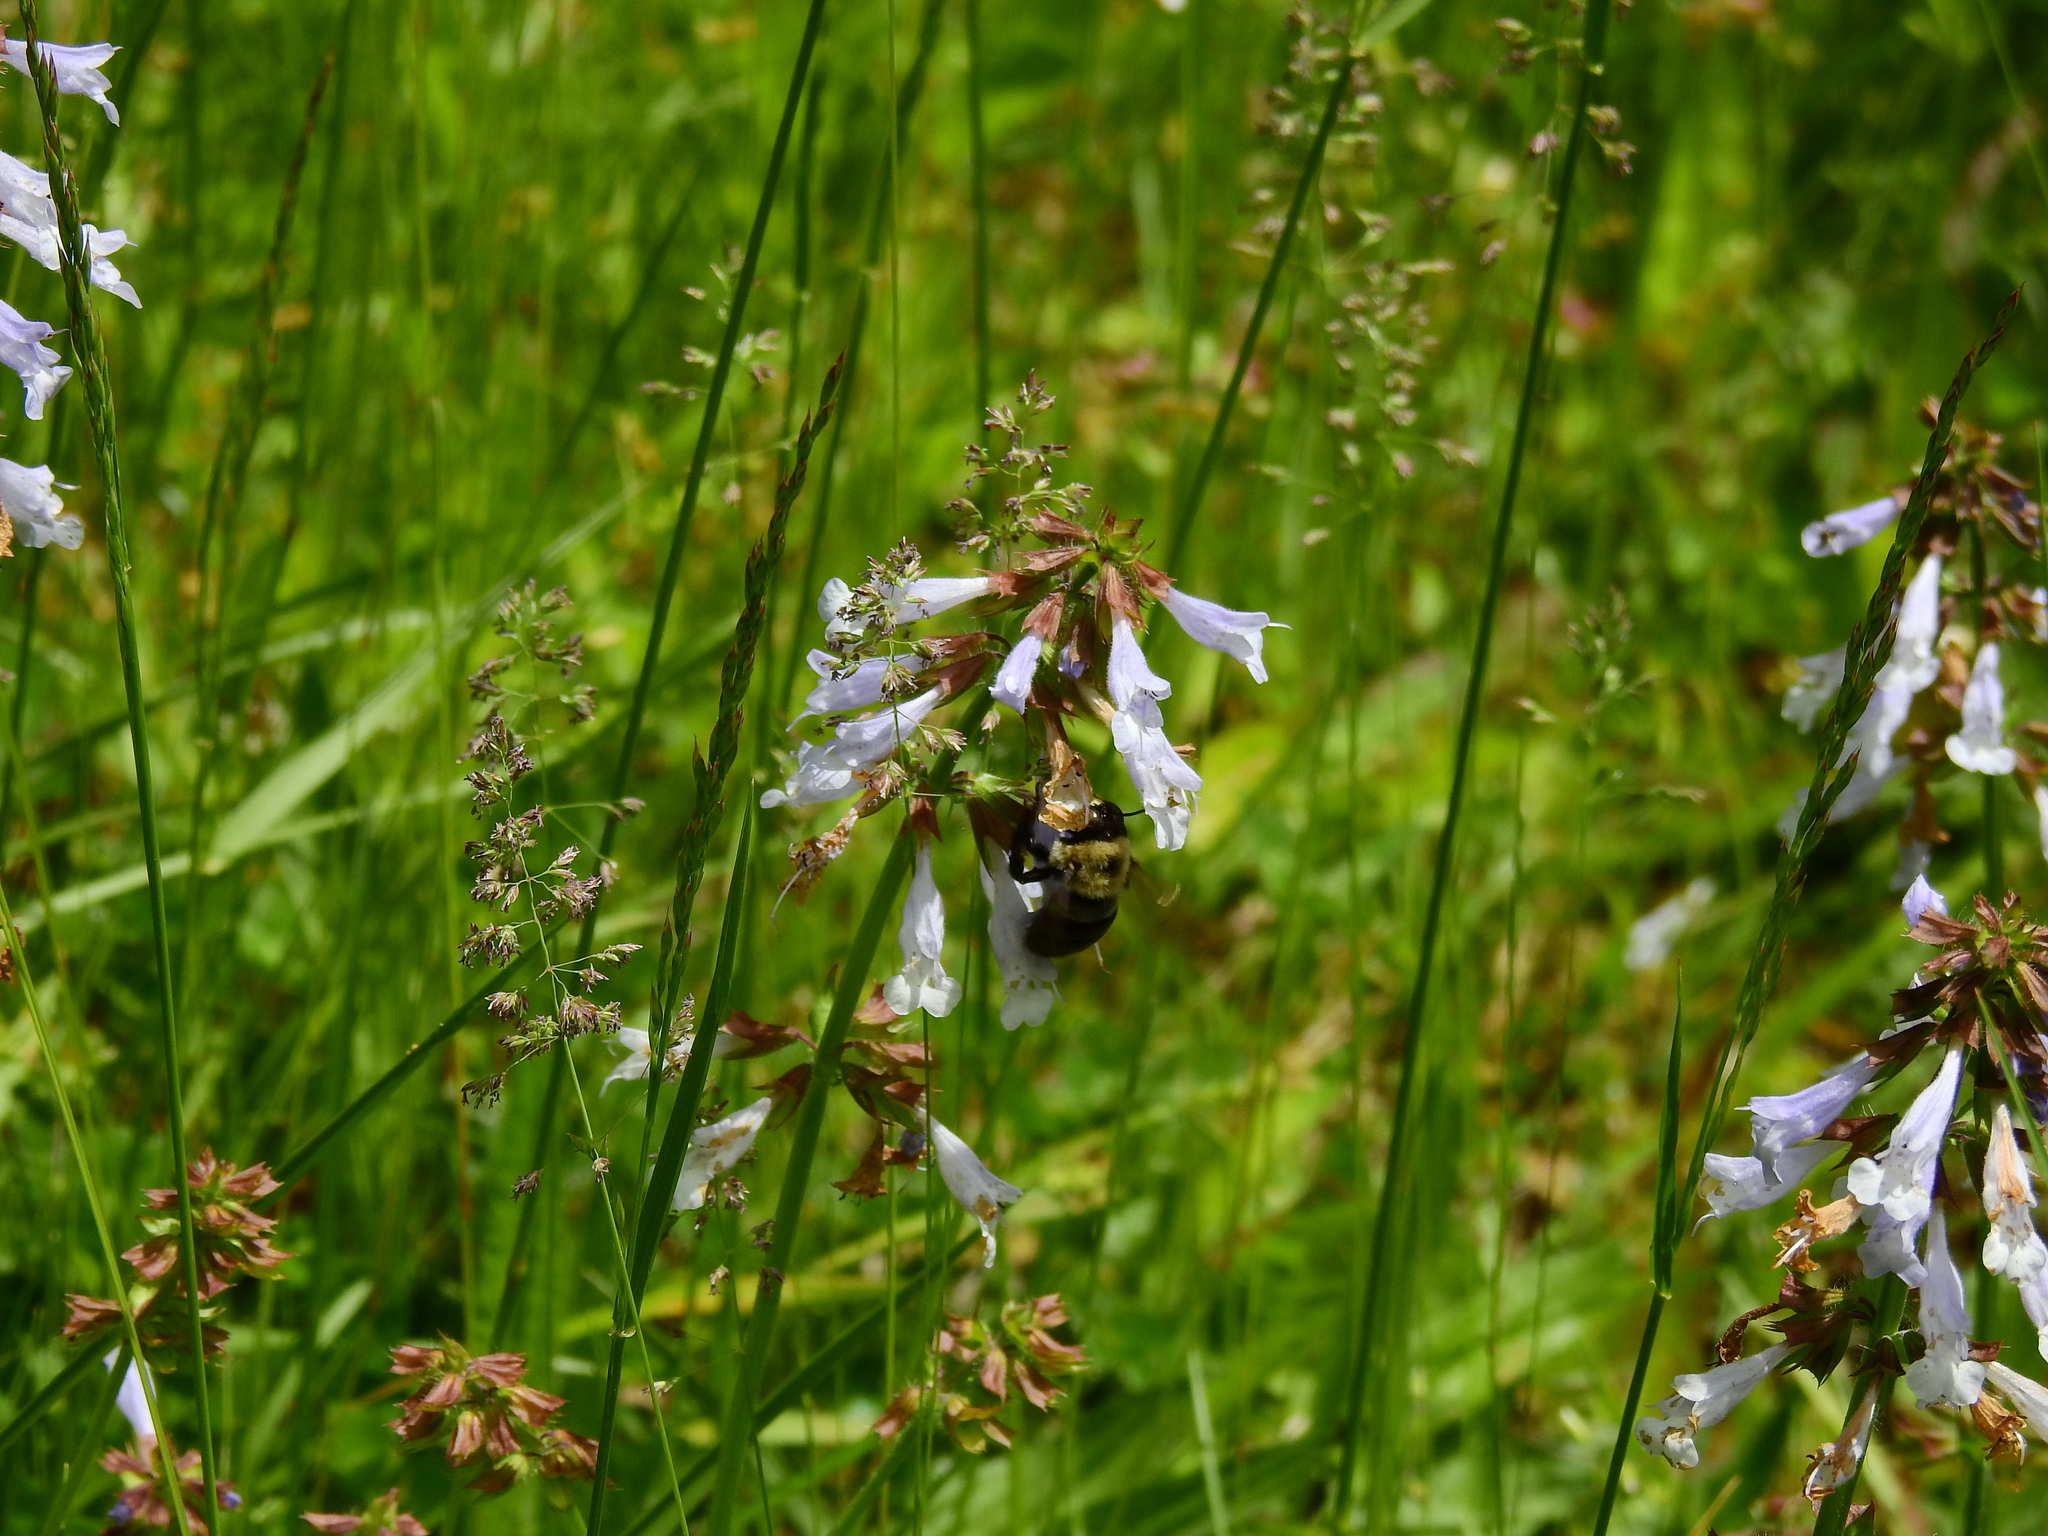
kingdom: Animalia
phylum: Arthropoda
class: Insecta
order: Hymenoptera
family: Apidae
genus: Xylocopa
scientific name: Xylocopa virginica
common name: Carpenter bee
